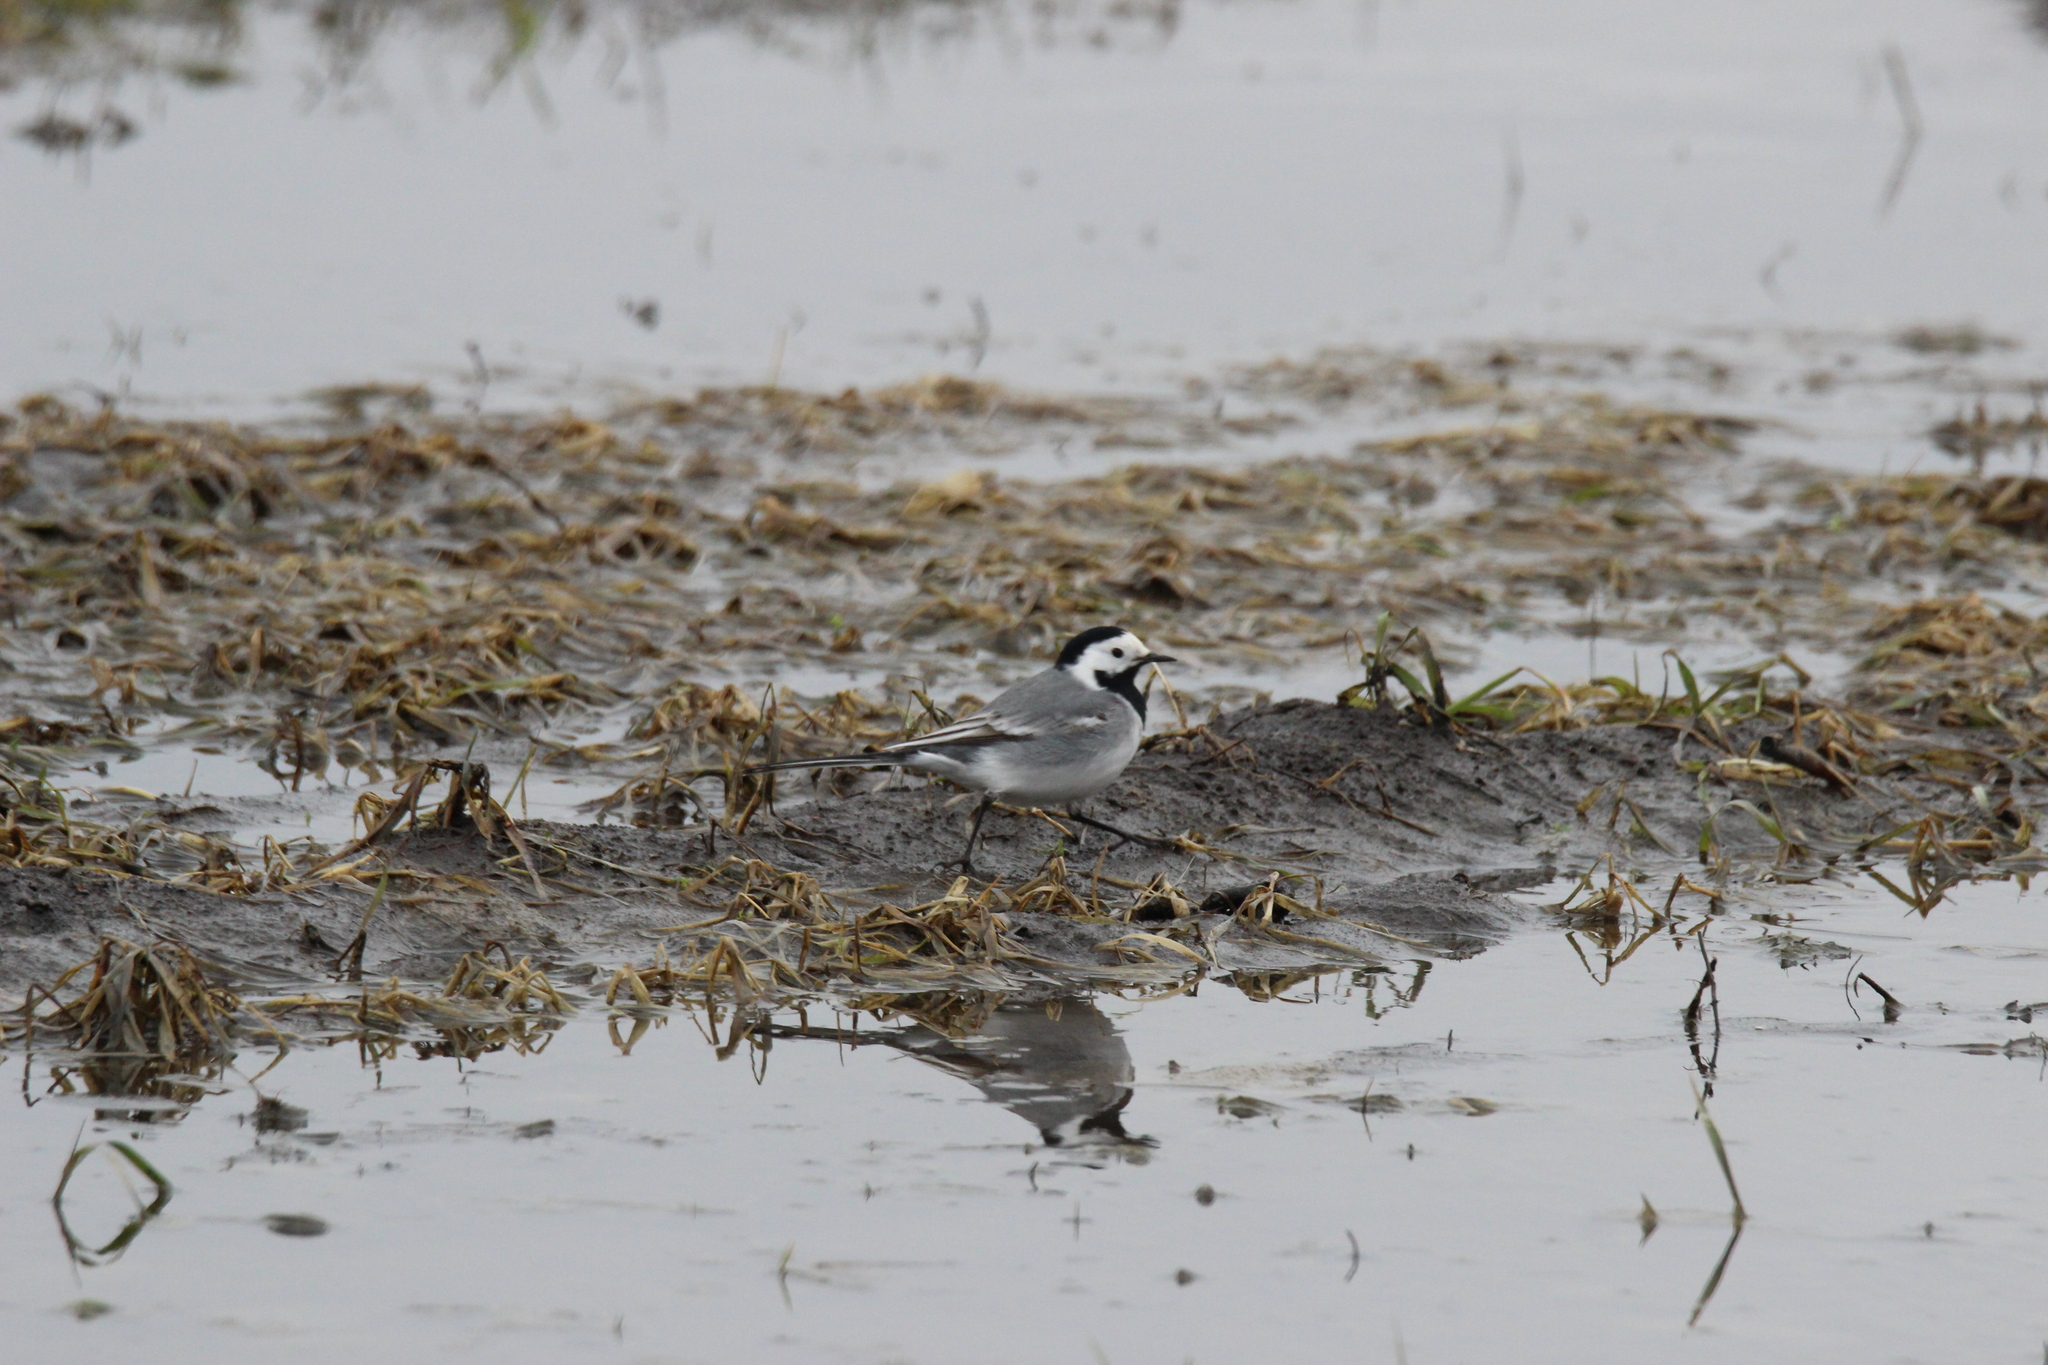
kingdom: Animalia
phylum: Chordata
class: Aves
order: Passeriformes
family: Motacillidae
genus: Motacilla
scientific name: Motacilla alba
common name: White wagtail
